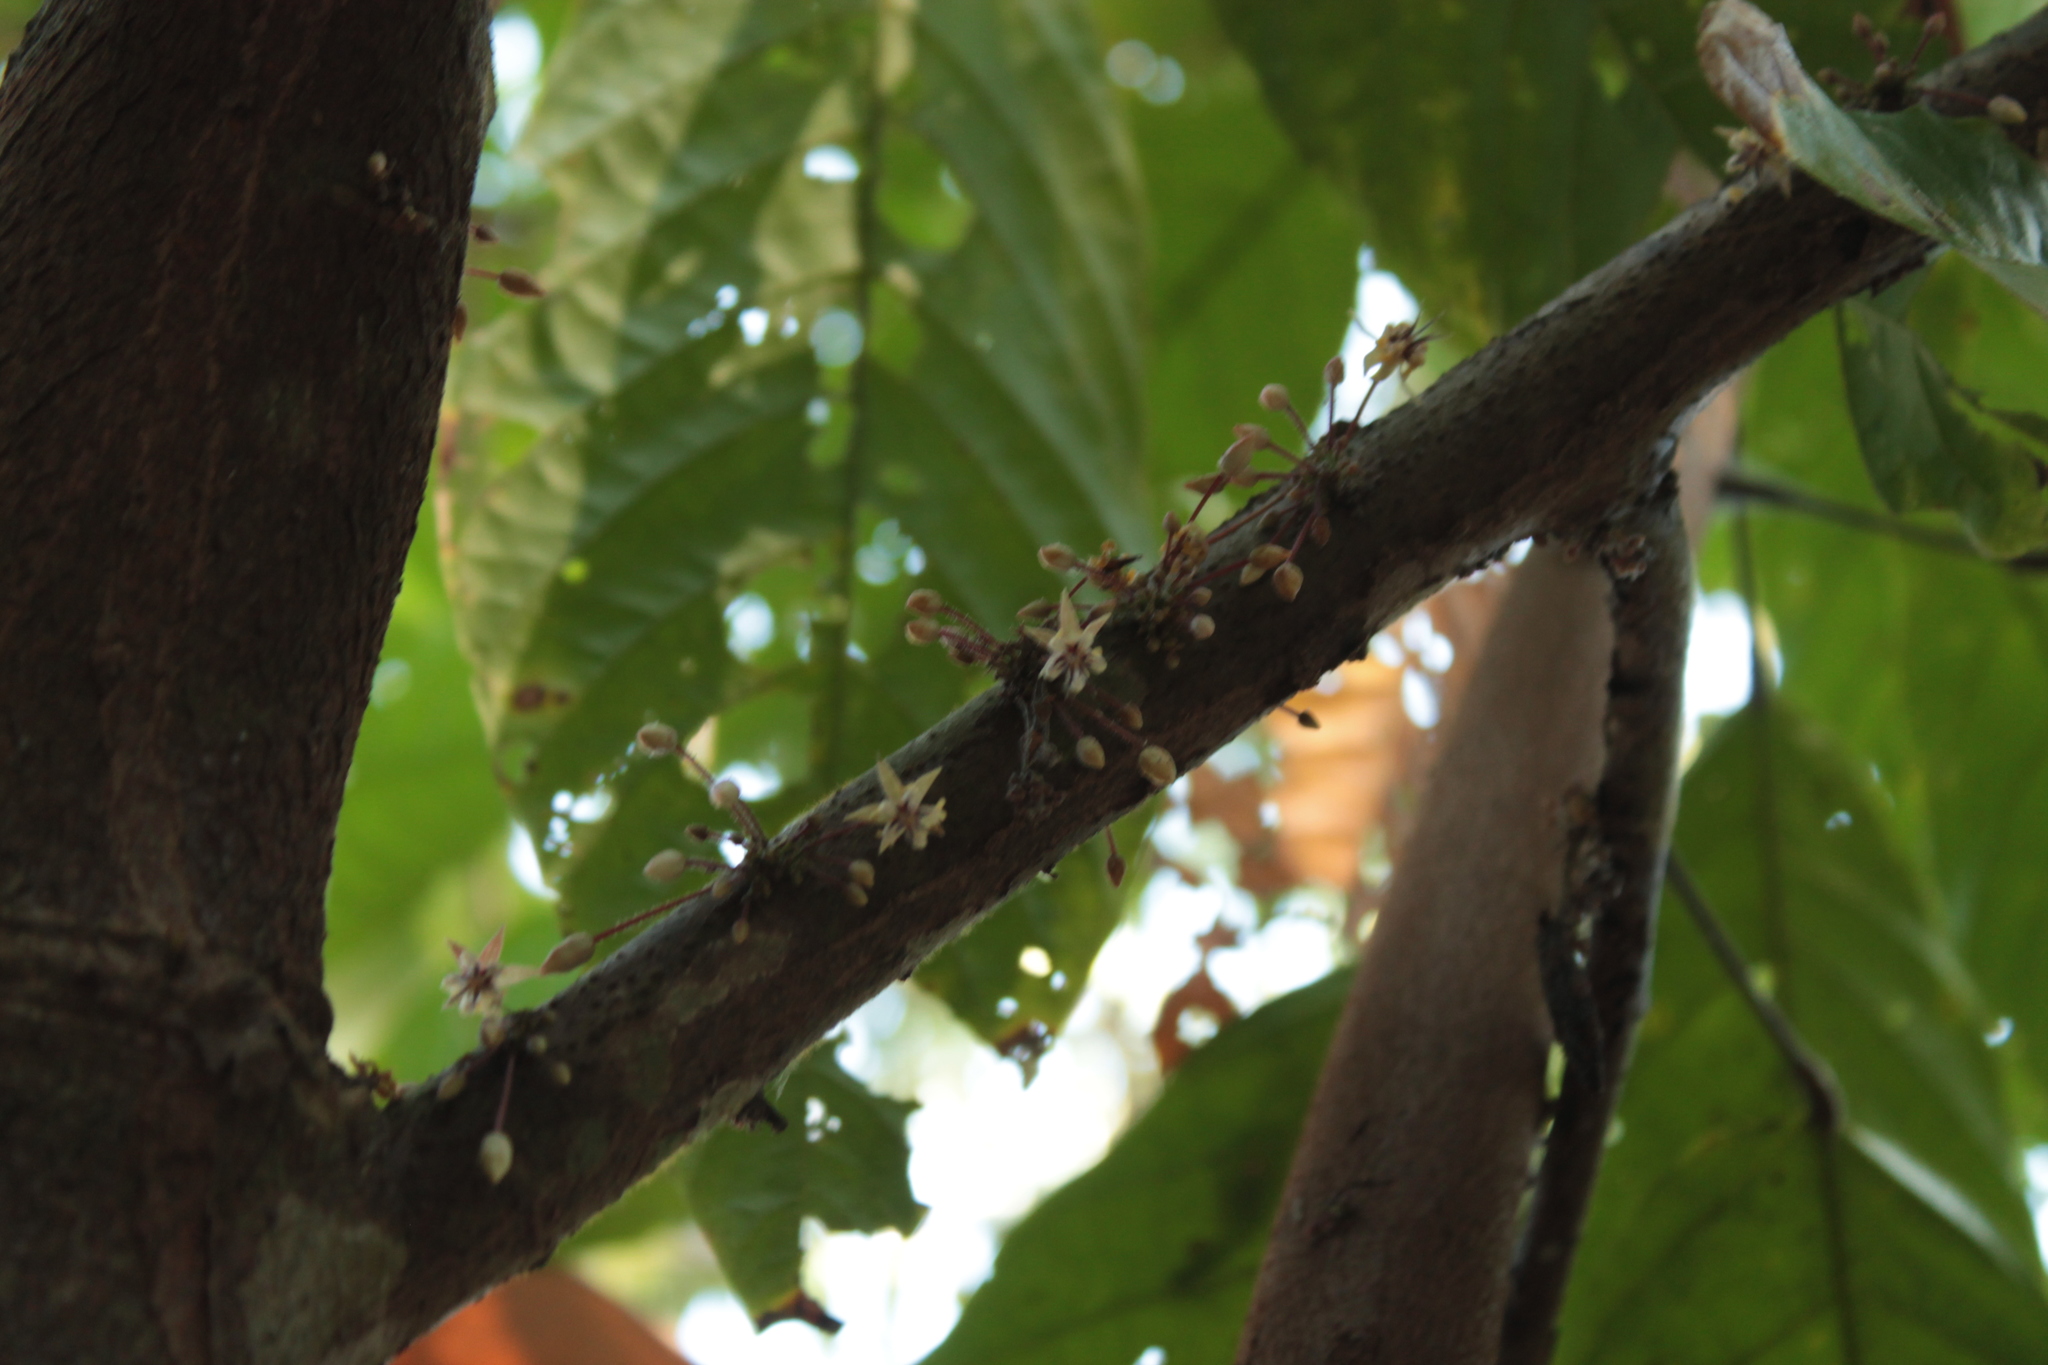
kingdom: Plantae
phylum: Tracheophyta
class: Magnoliopsida
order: Malvales
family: Malvaceae
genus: Theobroma
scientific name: Theobroma cacao
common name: Cocoa
